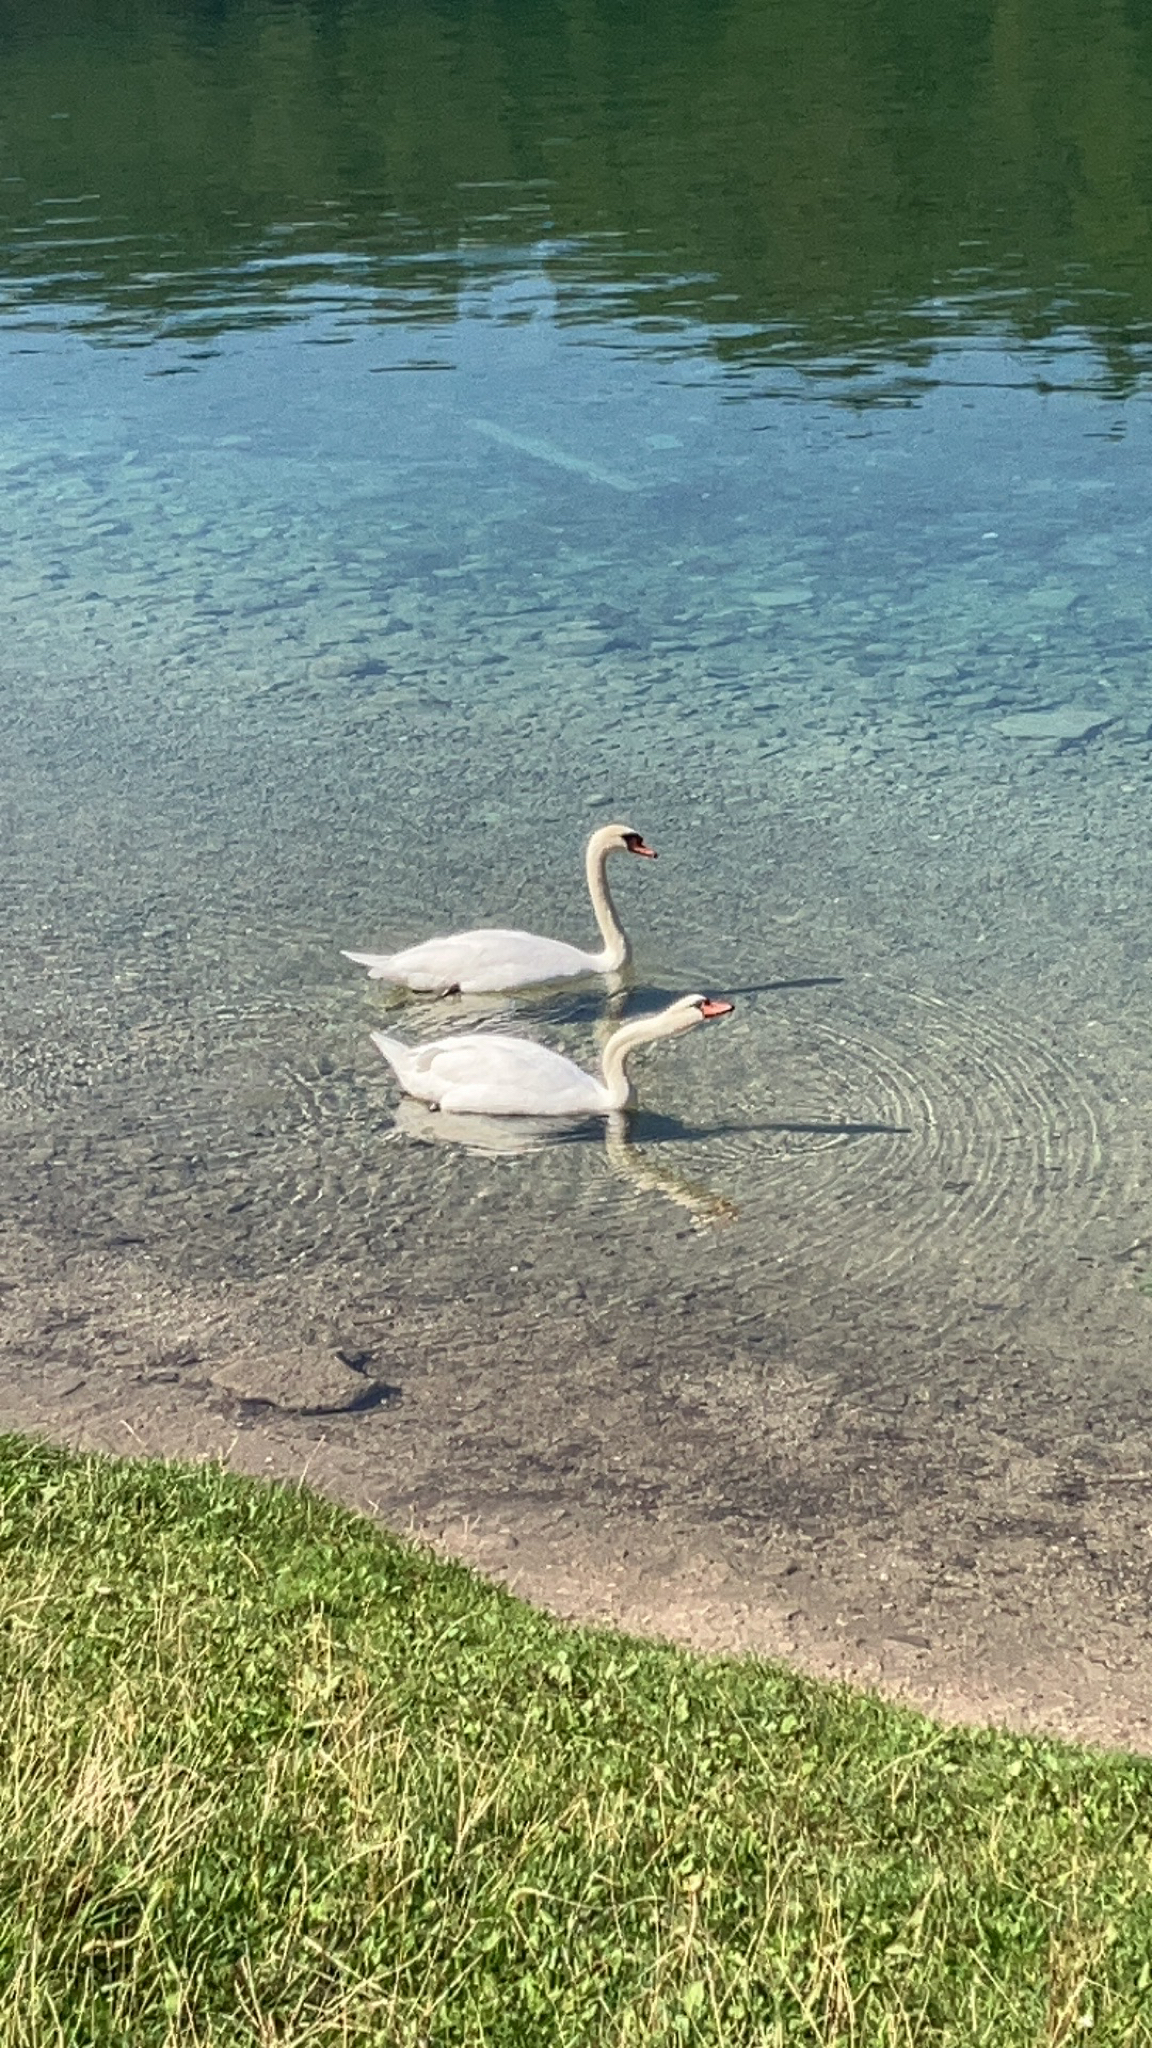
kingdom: Animalia
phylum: Chordata
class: Aves
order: Anseriformes
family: Anatidae
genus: Cygnus
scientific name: Cygnus olor
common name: Mute swan
